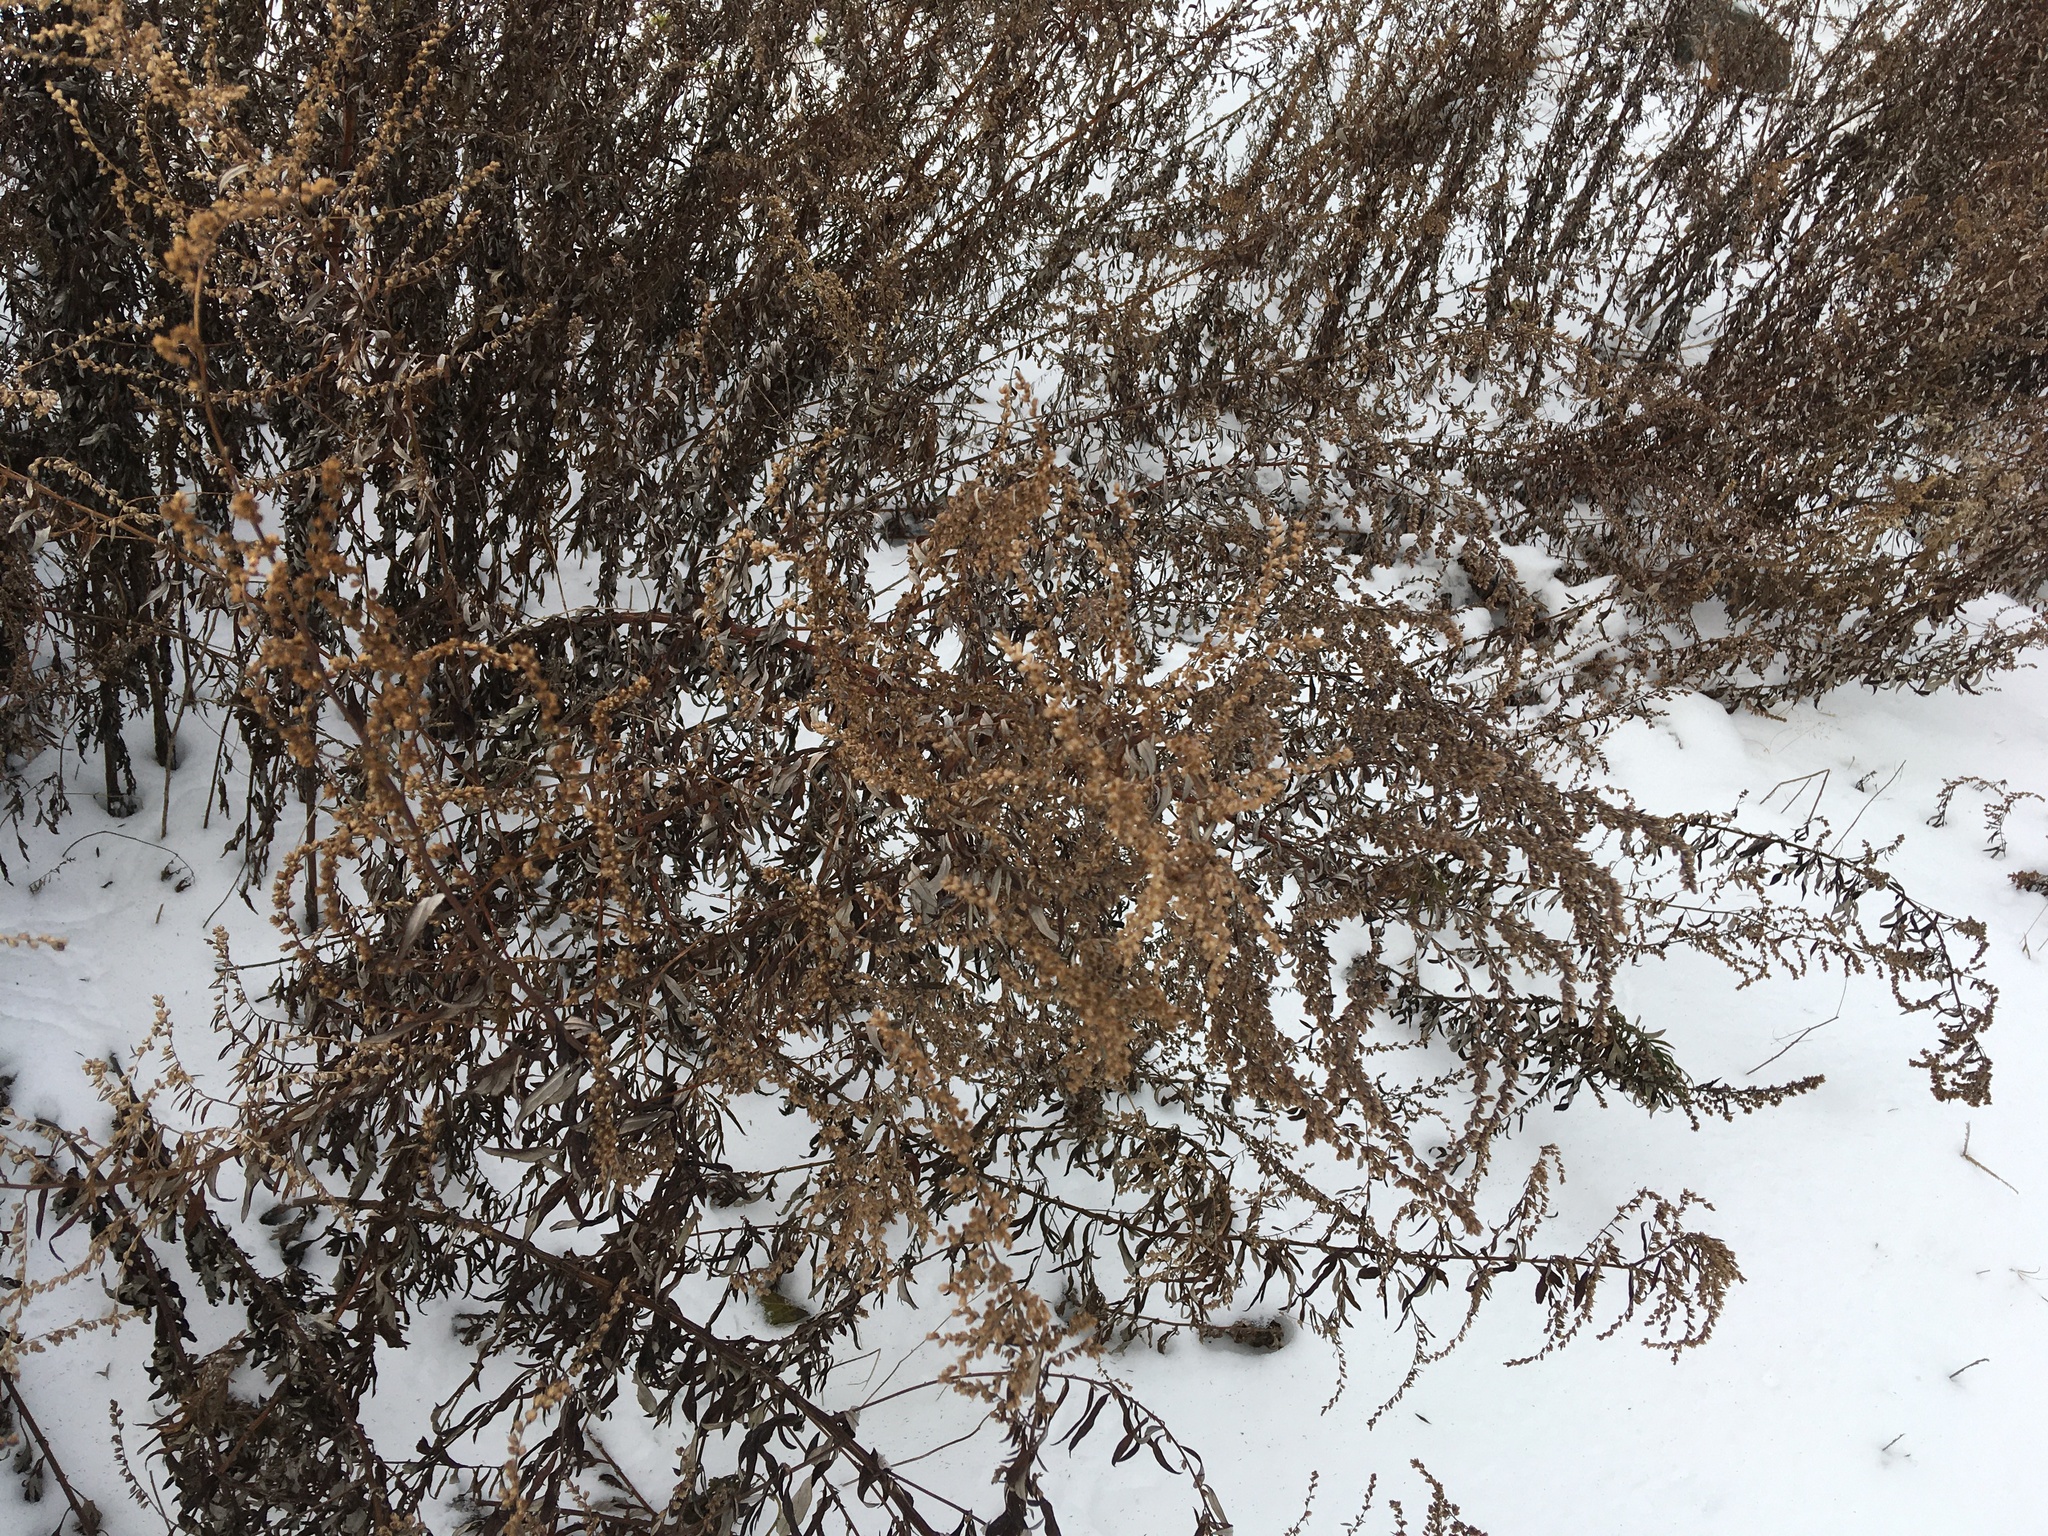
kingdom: Plantae
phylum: Tracheophyta
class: Magnoliopsida
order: Asterales
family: Asteraceae
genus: Artemisia
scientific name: Artemisia vulgaris
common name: Mugwort
